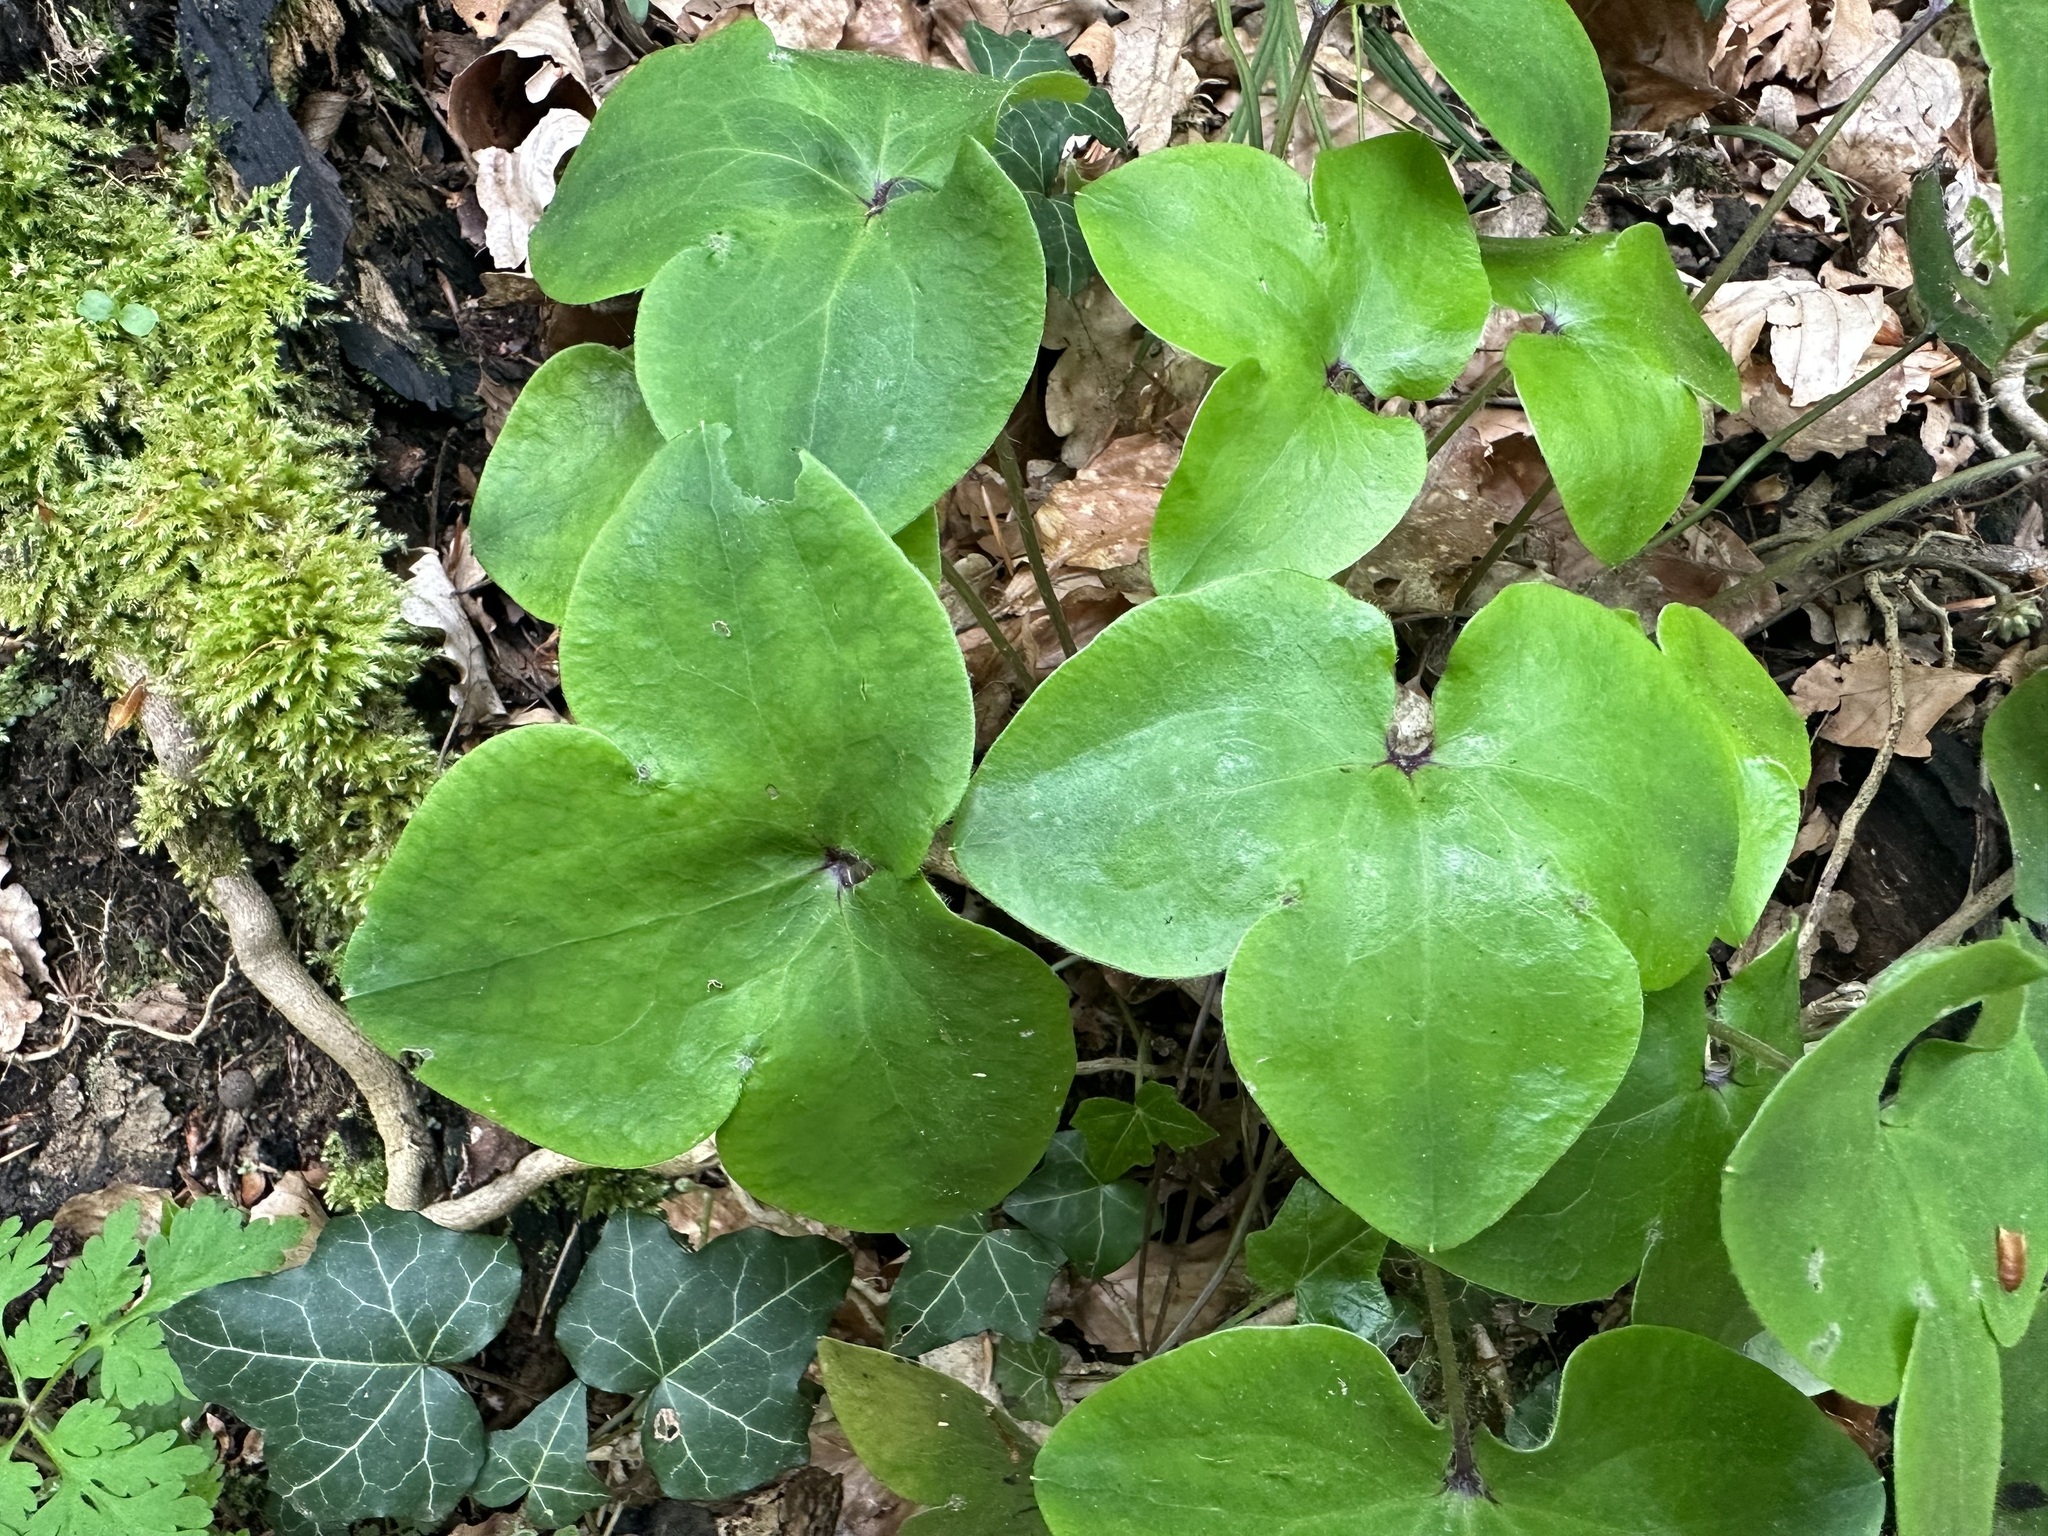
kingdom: Plantae
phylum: Tracheophyta
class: Magnoliopsida
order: Ranunculales
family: Ranunculaceae
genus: Hepatica
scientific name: Hepatica nobilis
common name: Liverleaf
